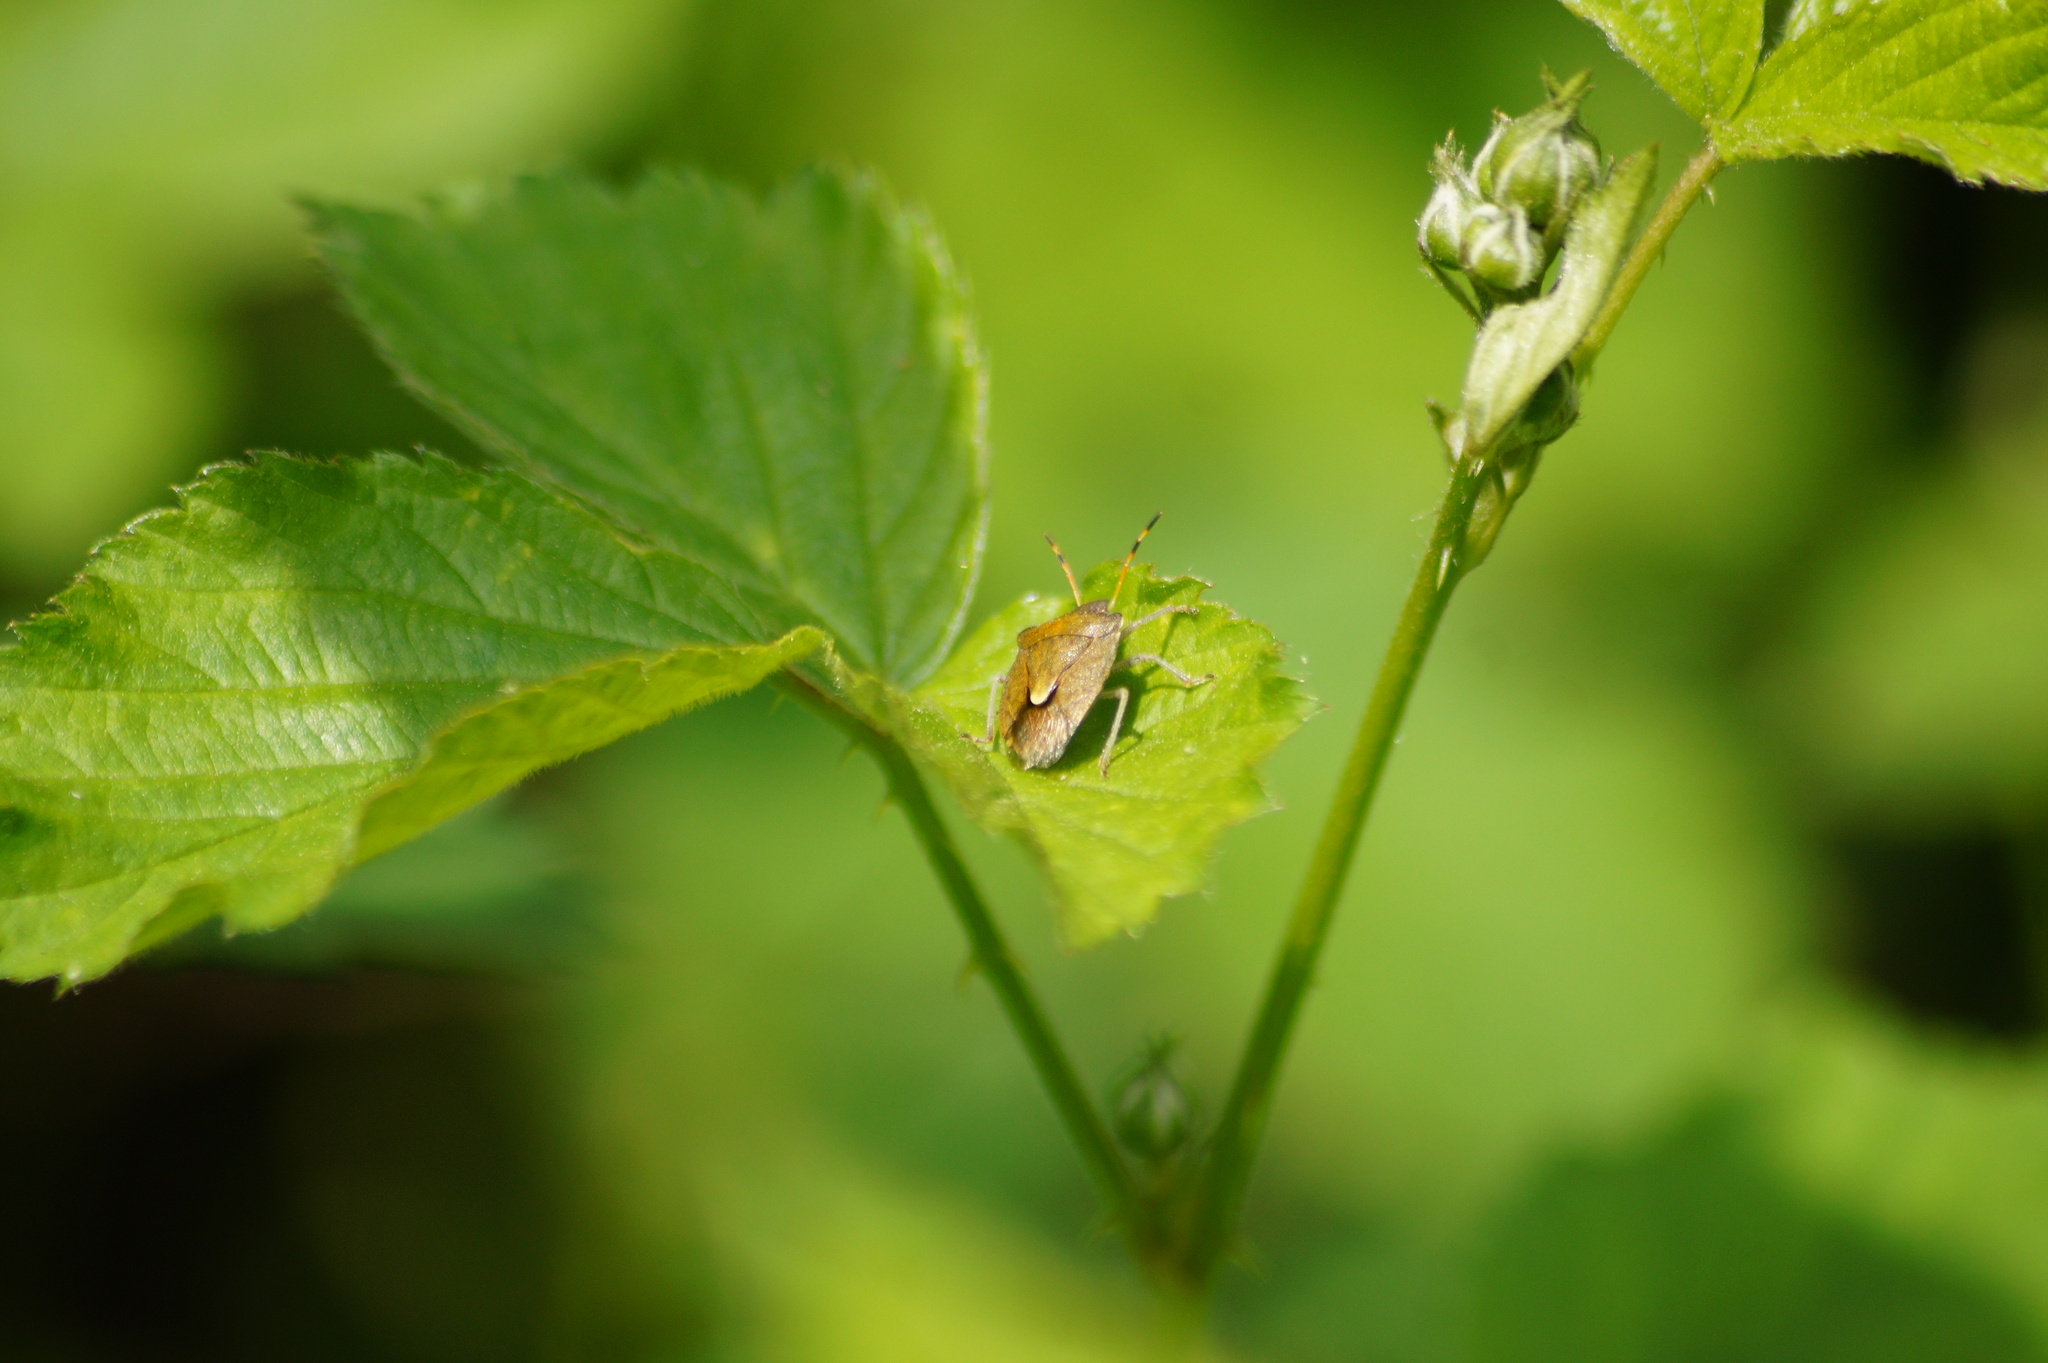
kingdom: Animalia
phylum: Arthropoda
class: Insecta
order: Hemiptera
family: Pentatomidae
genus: Holcostethus
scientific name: Holcostethus strictus
